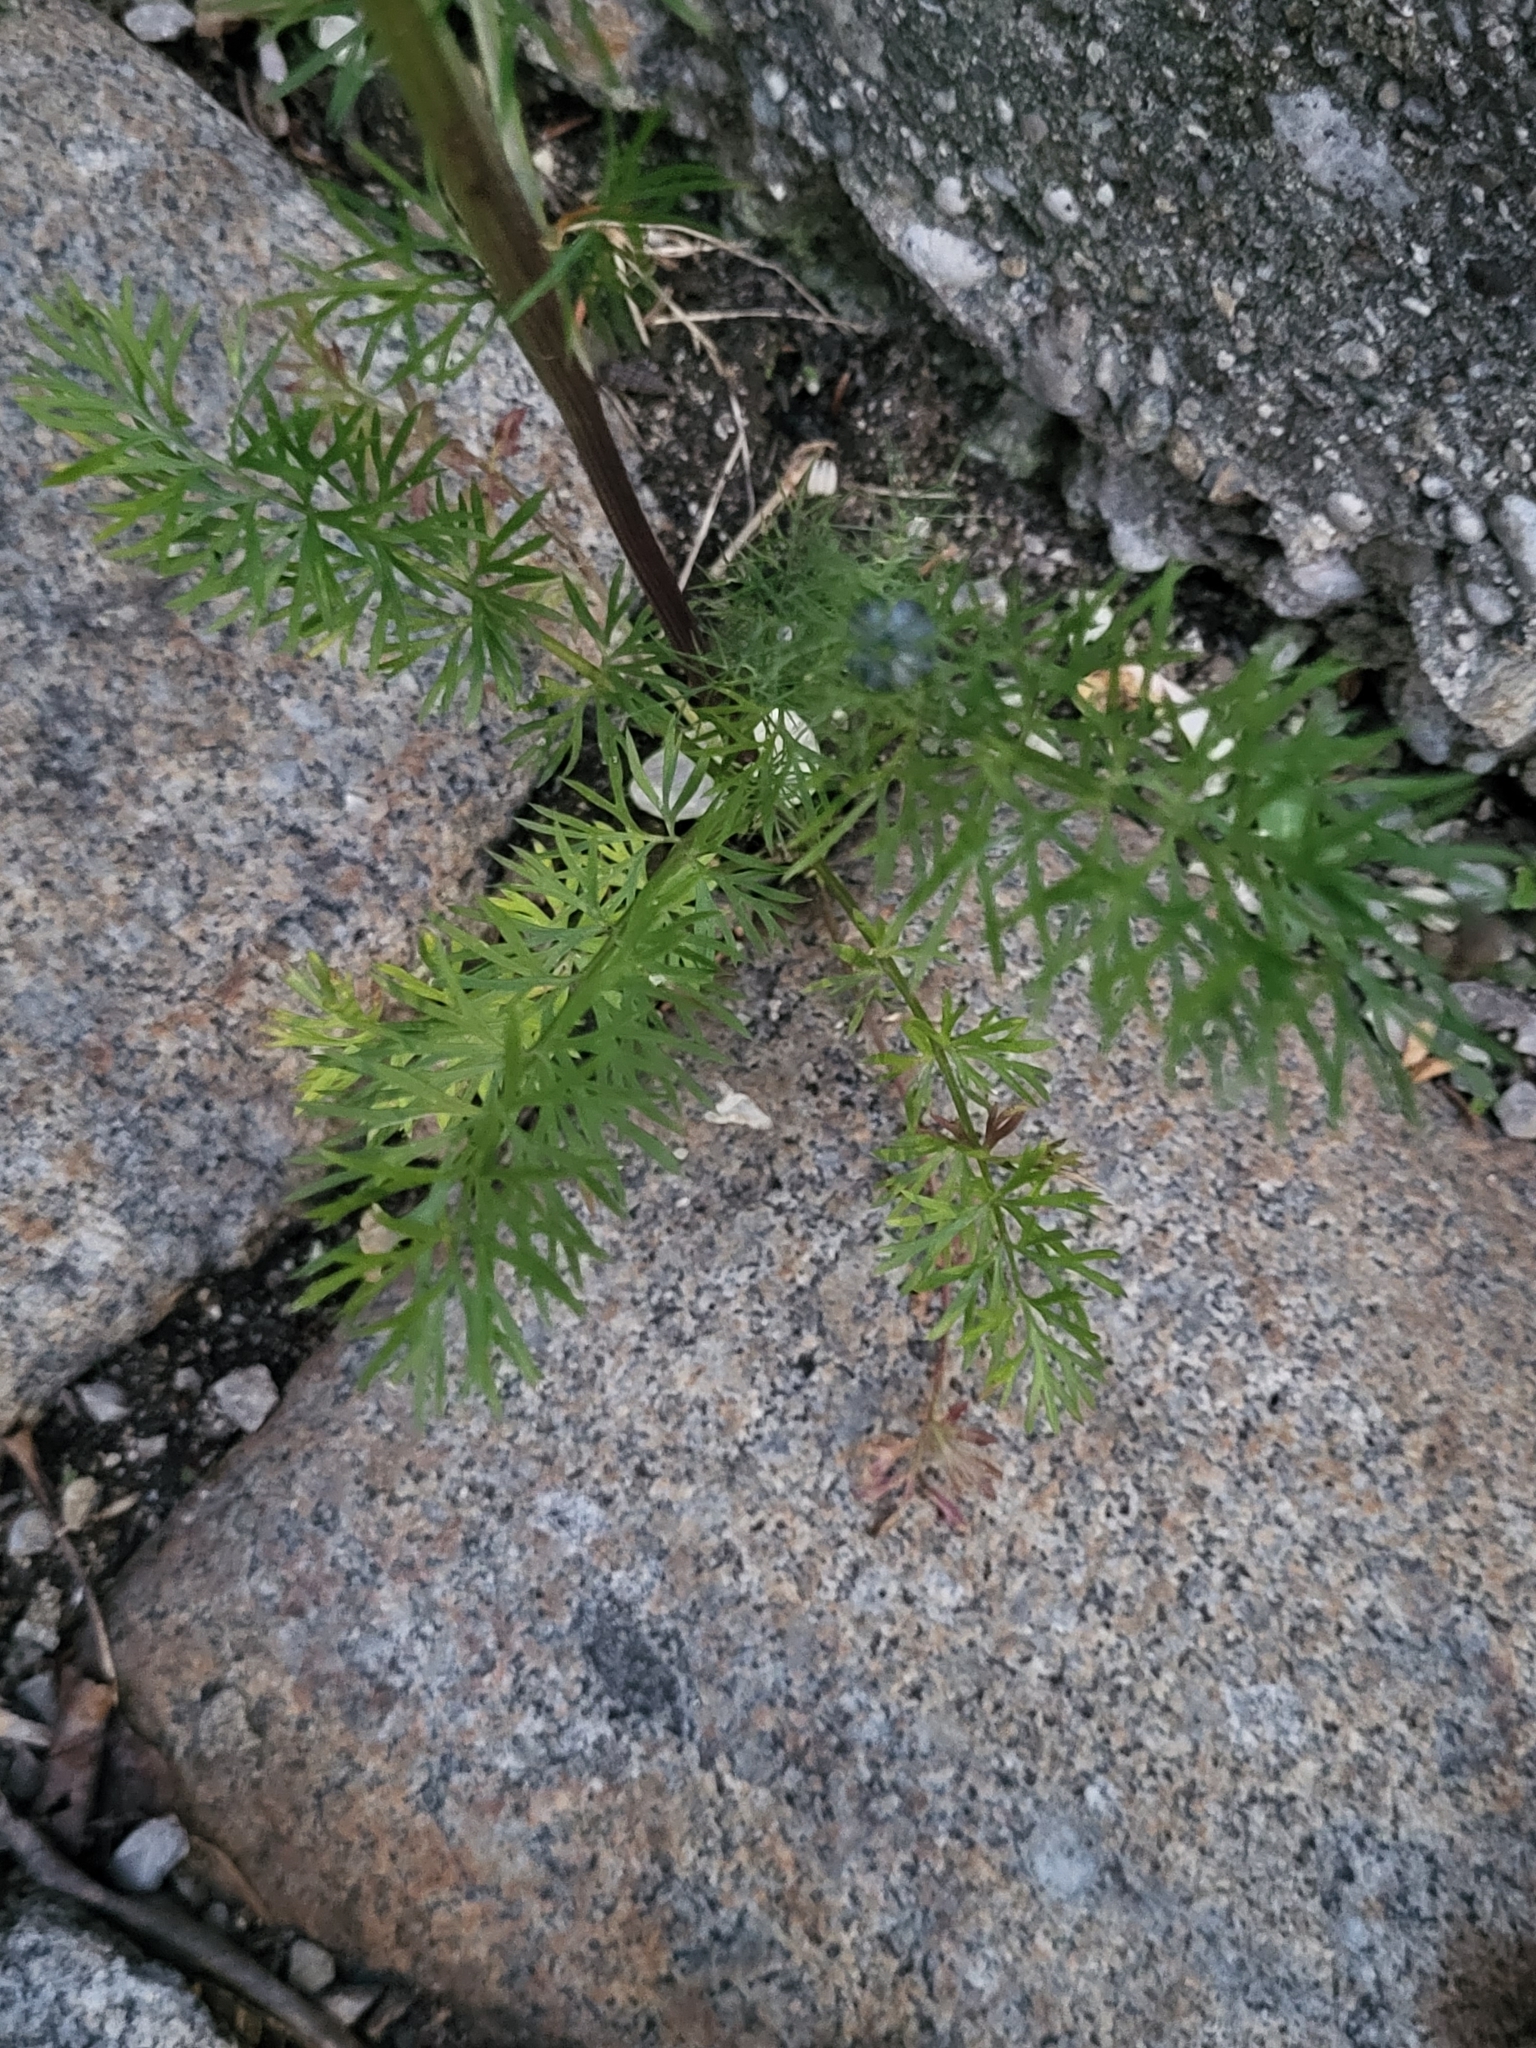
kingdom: Plantae
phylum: Tracheophyta
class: Magnoliopsida
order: Ranunculales
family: Ranunculaceae
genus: Nigella
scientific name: Nigella damascena
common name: Love-in-a-mist
